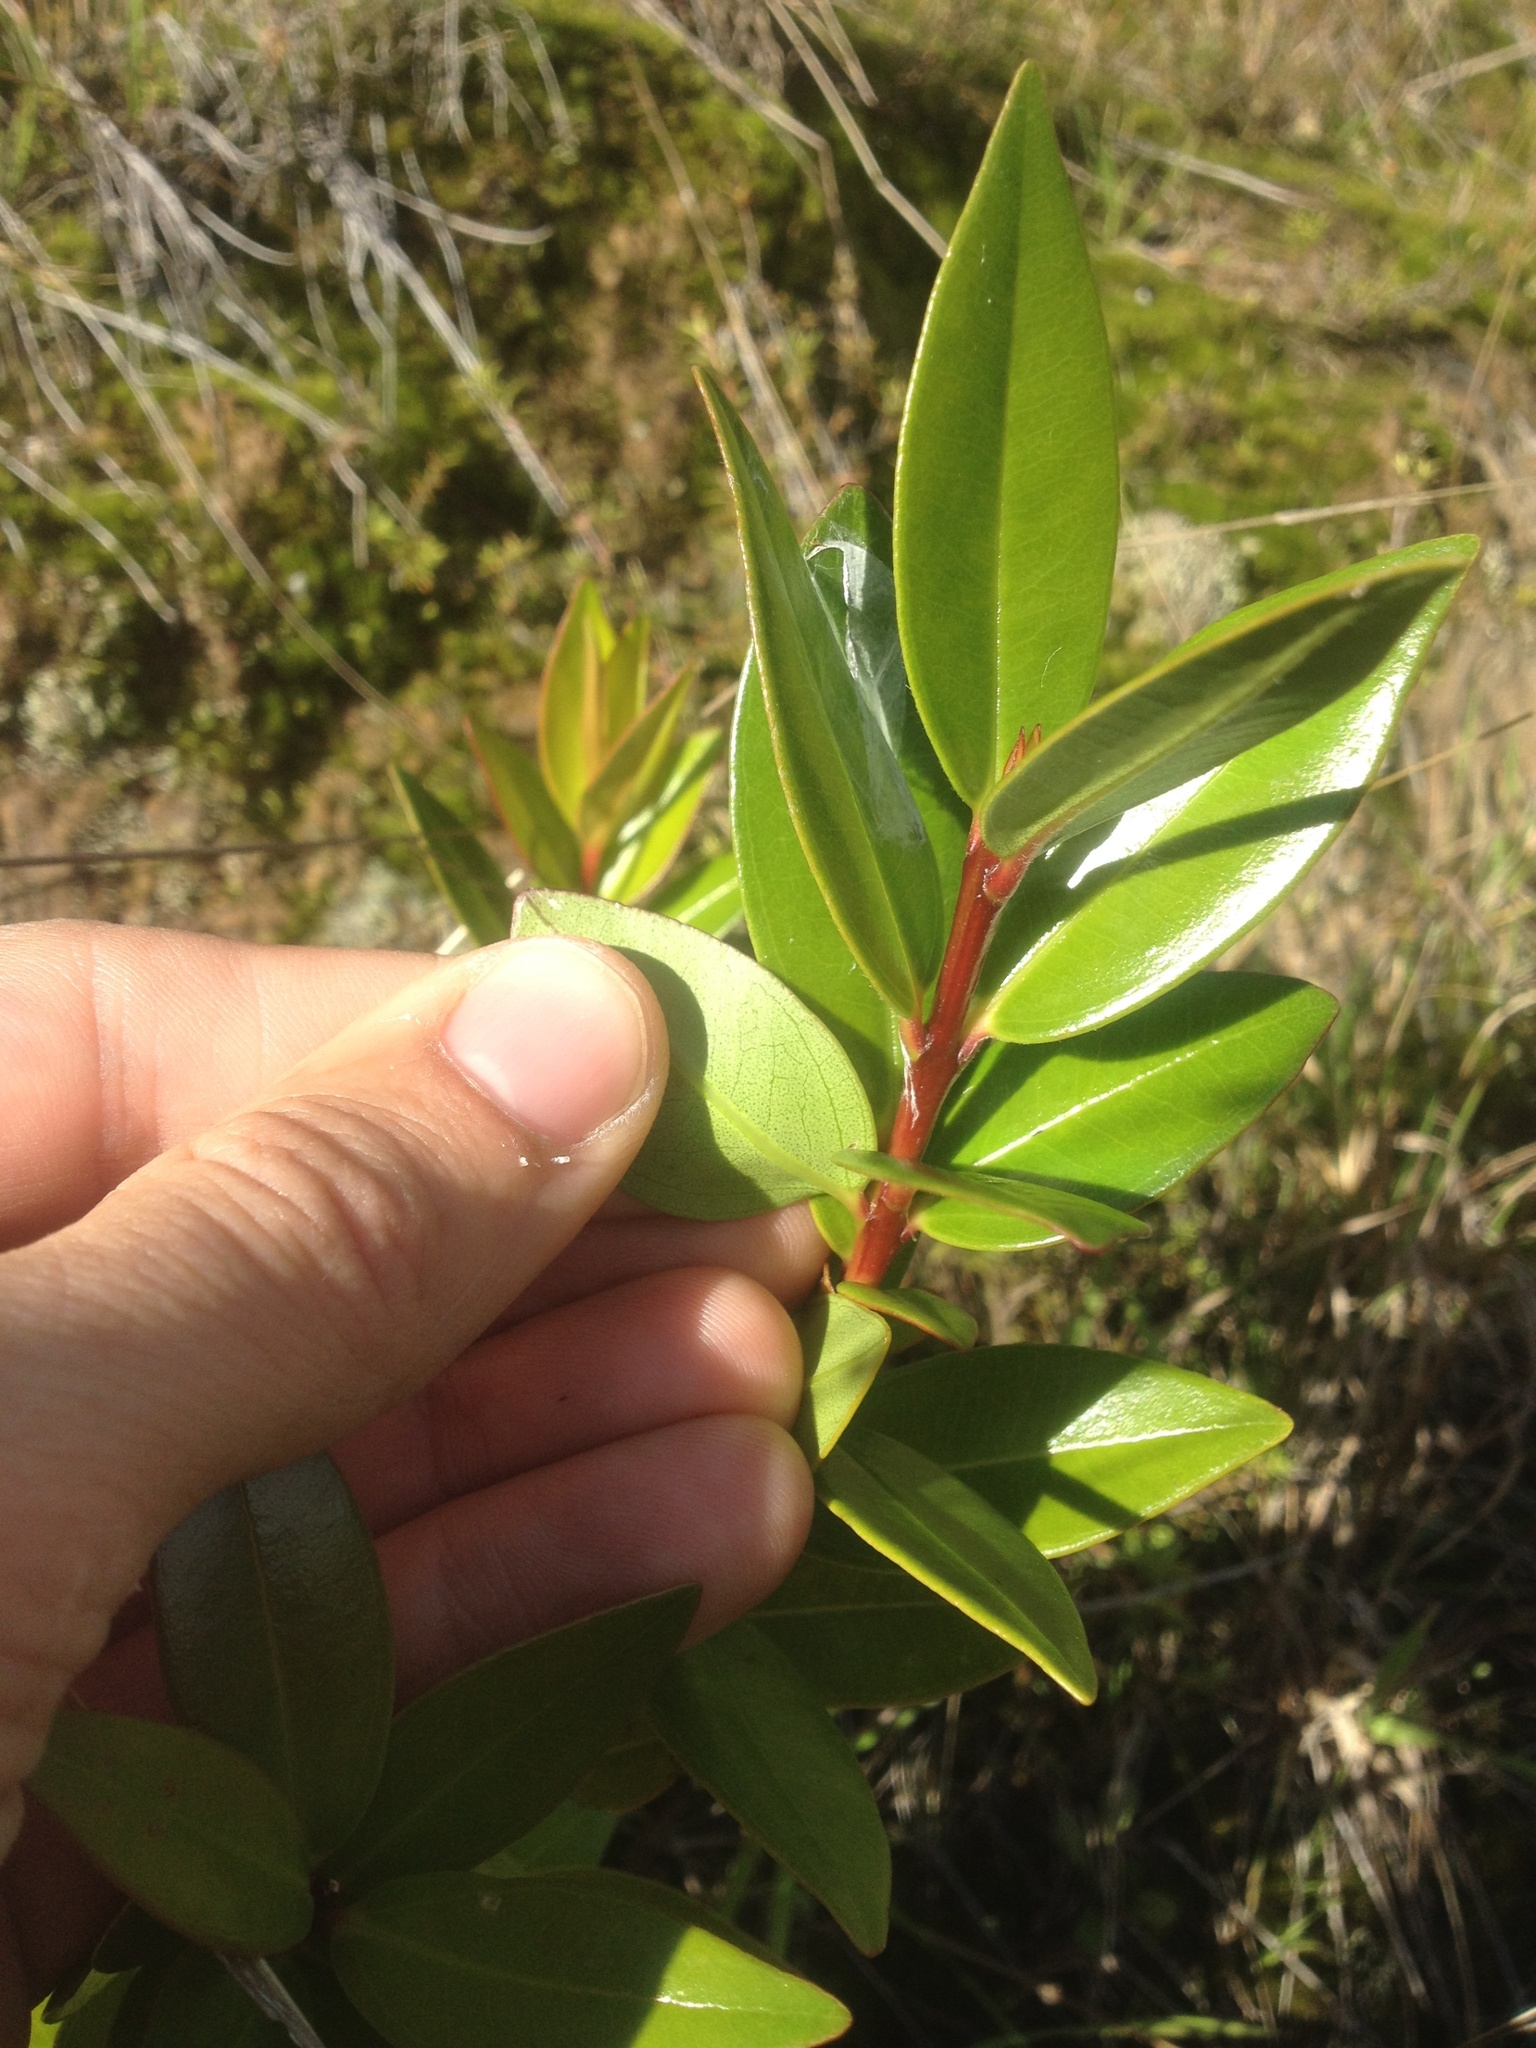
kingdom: Plantae
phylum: Tracheophyta
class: Magnoliopsida
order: Myrtales
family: Myrtaceae
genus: Metrosideros
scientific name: Metrosideros excelsa
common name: New zealand christmastree
